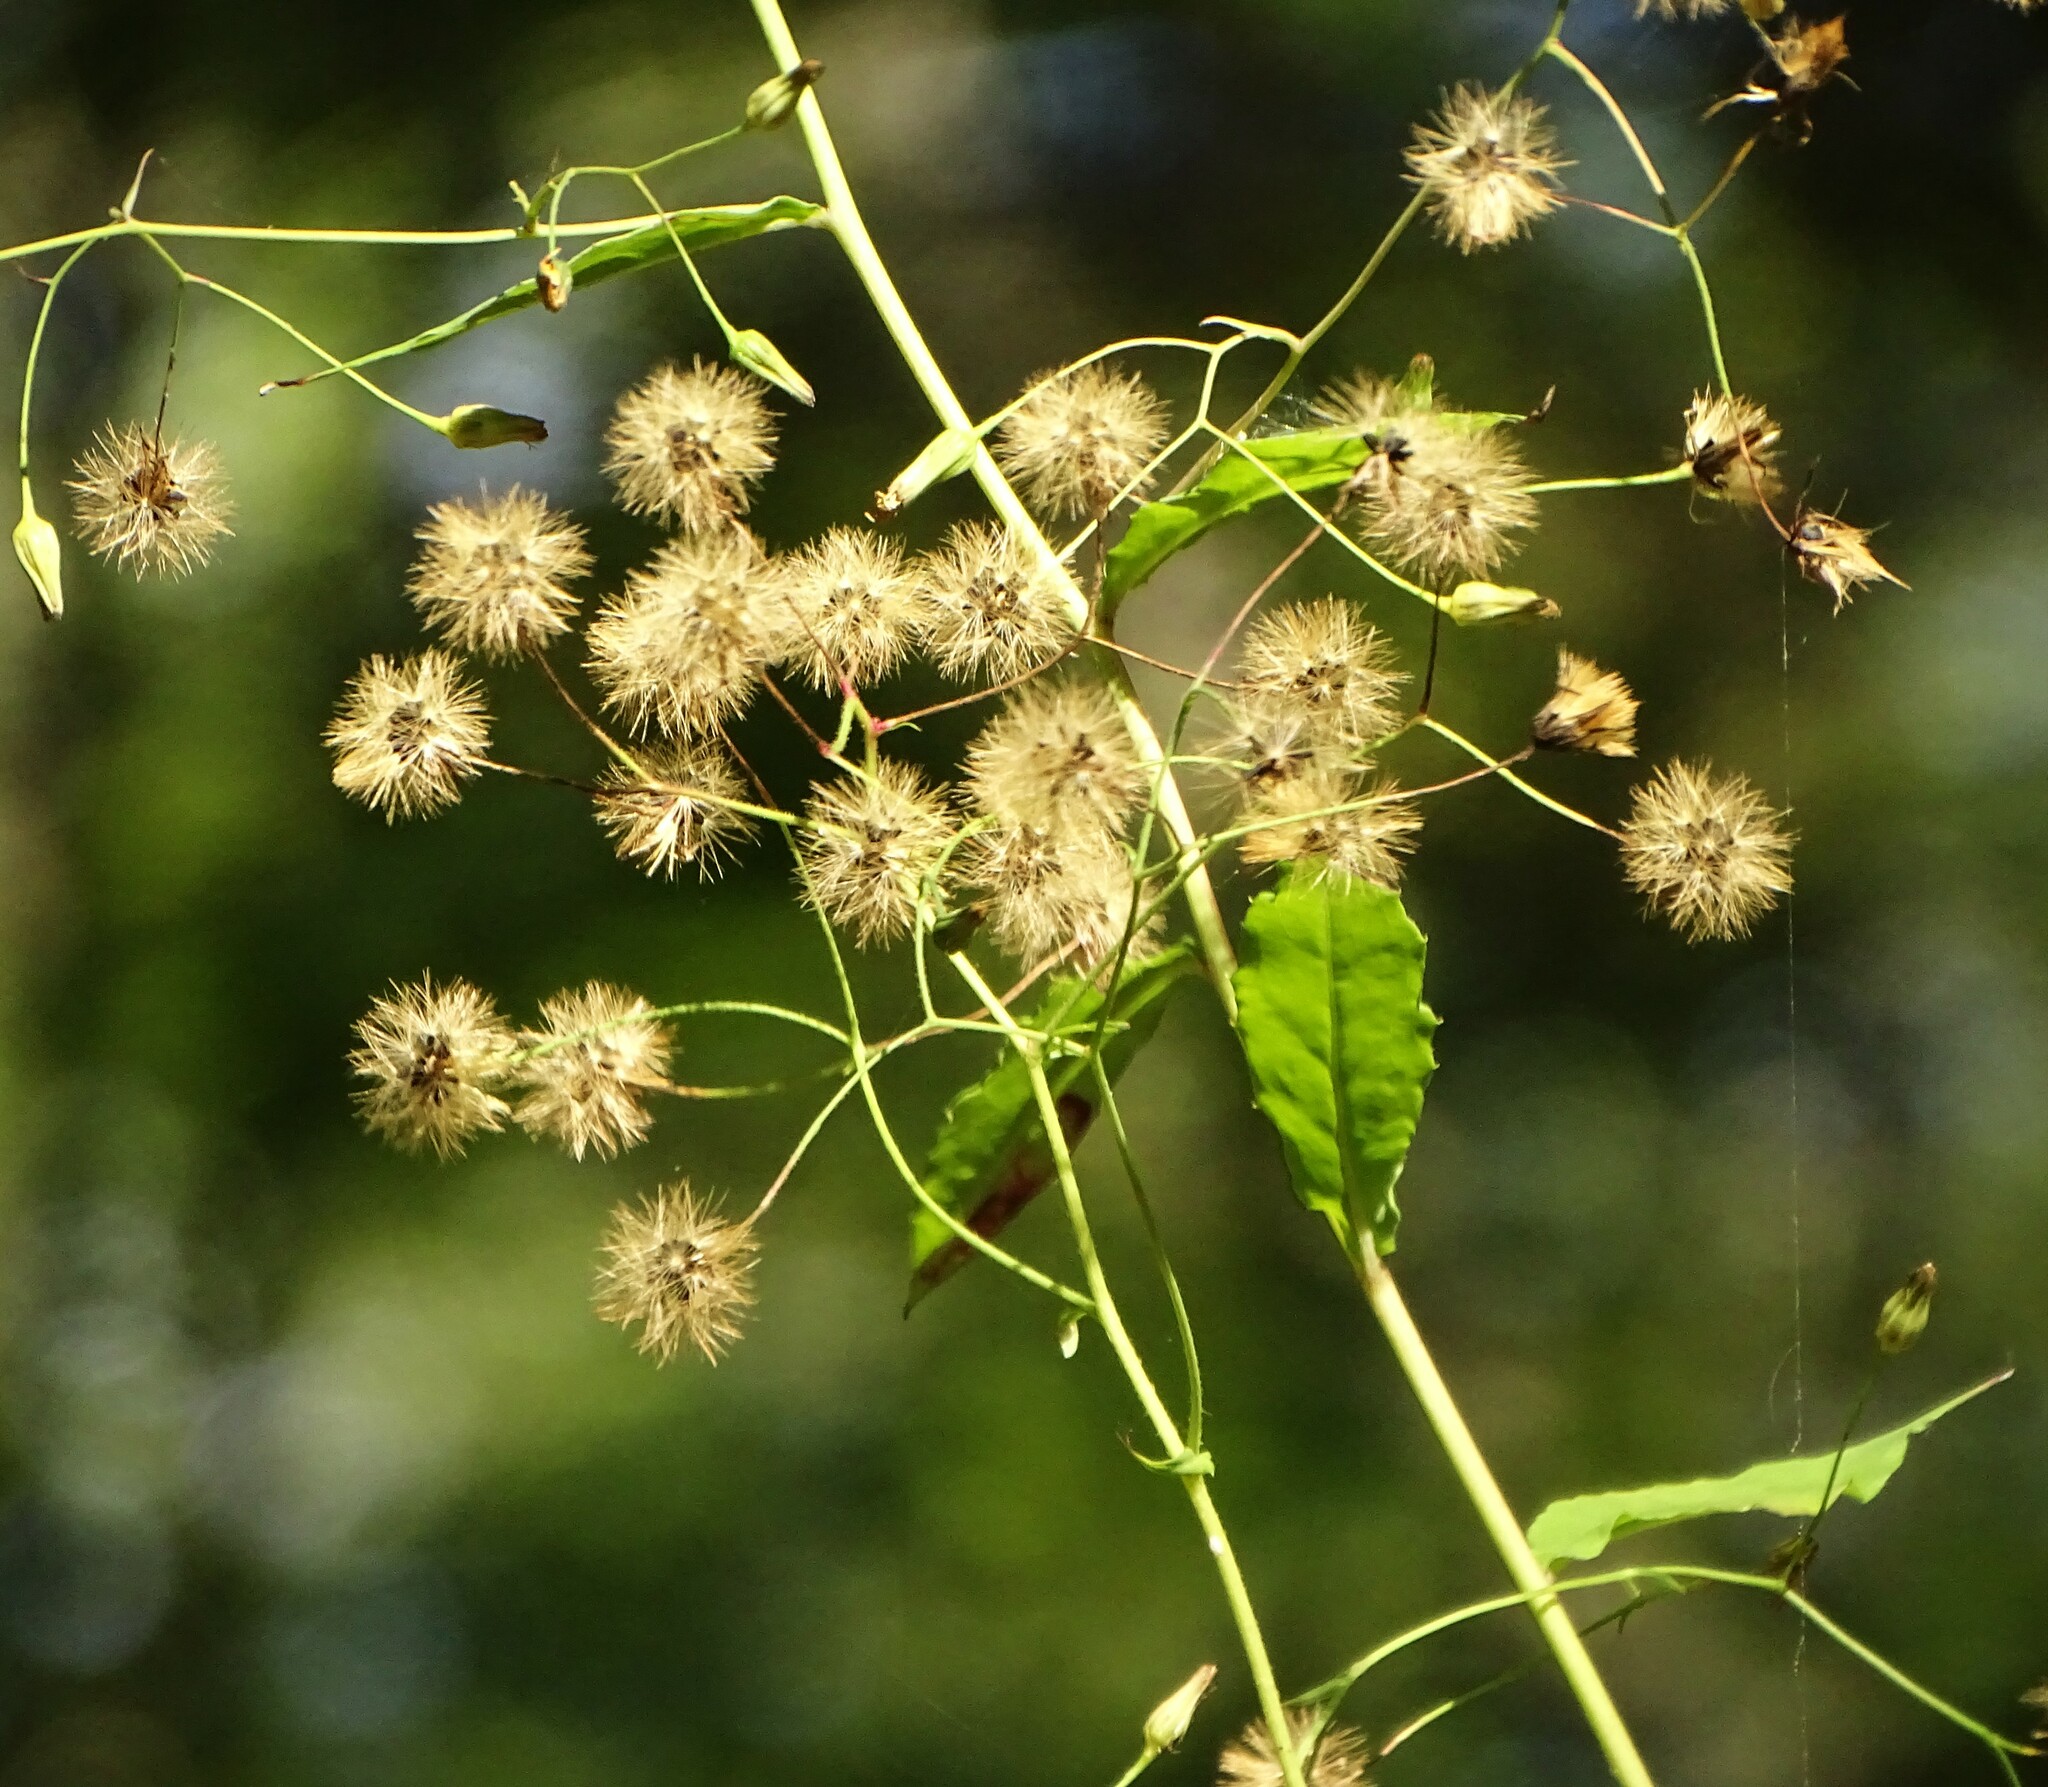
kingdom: Plantae
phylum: Tracheophyta
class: Magnoliopsida
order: Asterales
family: Asteraceae
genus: Hieracium
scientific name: Hieracium paniculatum
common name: Allegheny hawkweed
